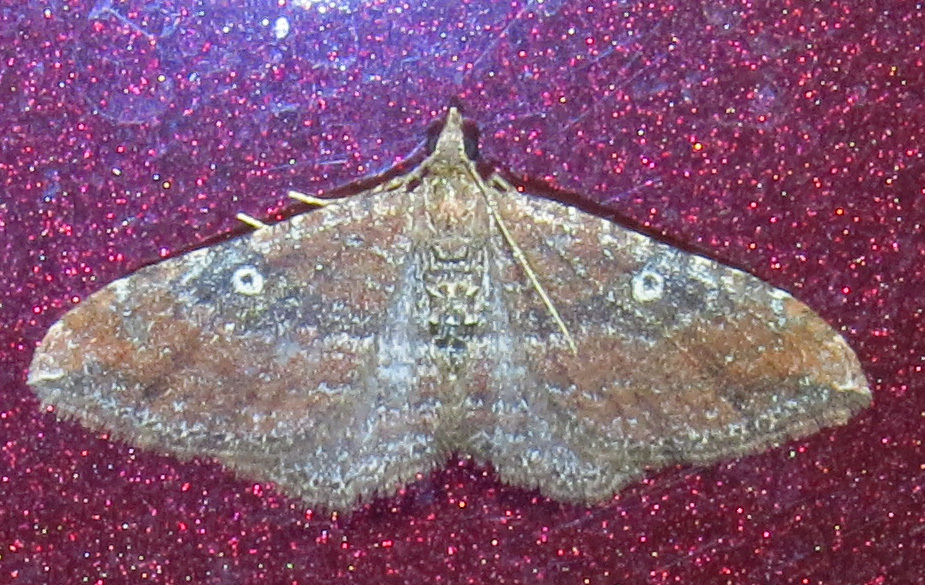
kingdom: Animalia
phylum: Arthropoda
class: Insecta
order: Lepidoptera
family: Geometridae
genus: Orthonama
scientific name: Orthonama obstipata
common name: The gem
